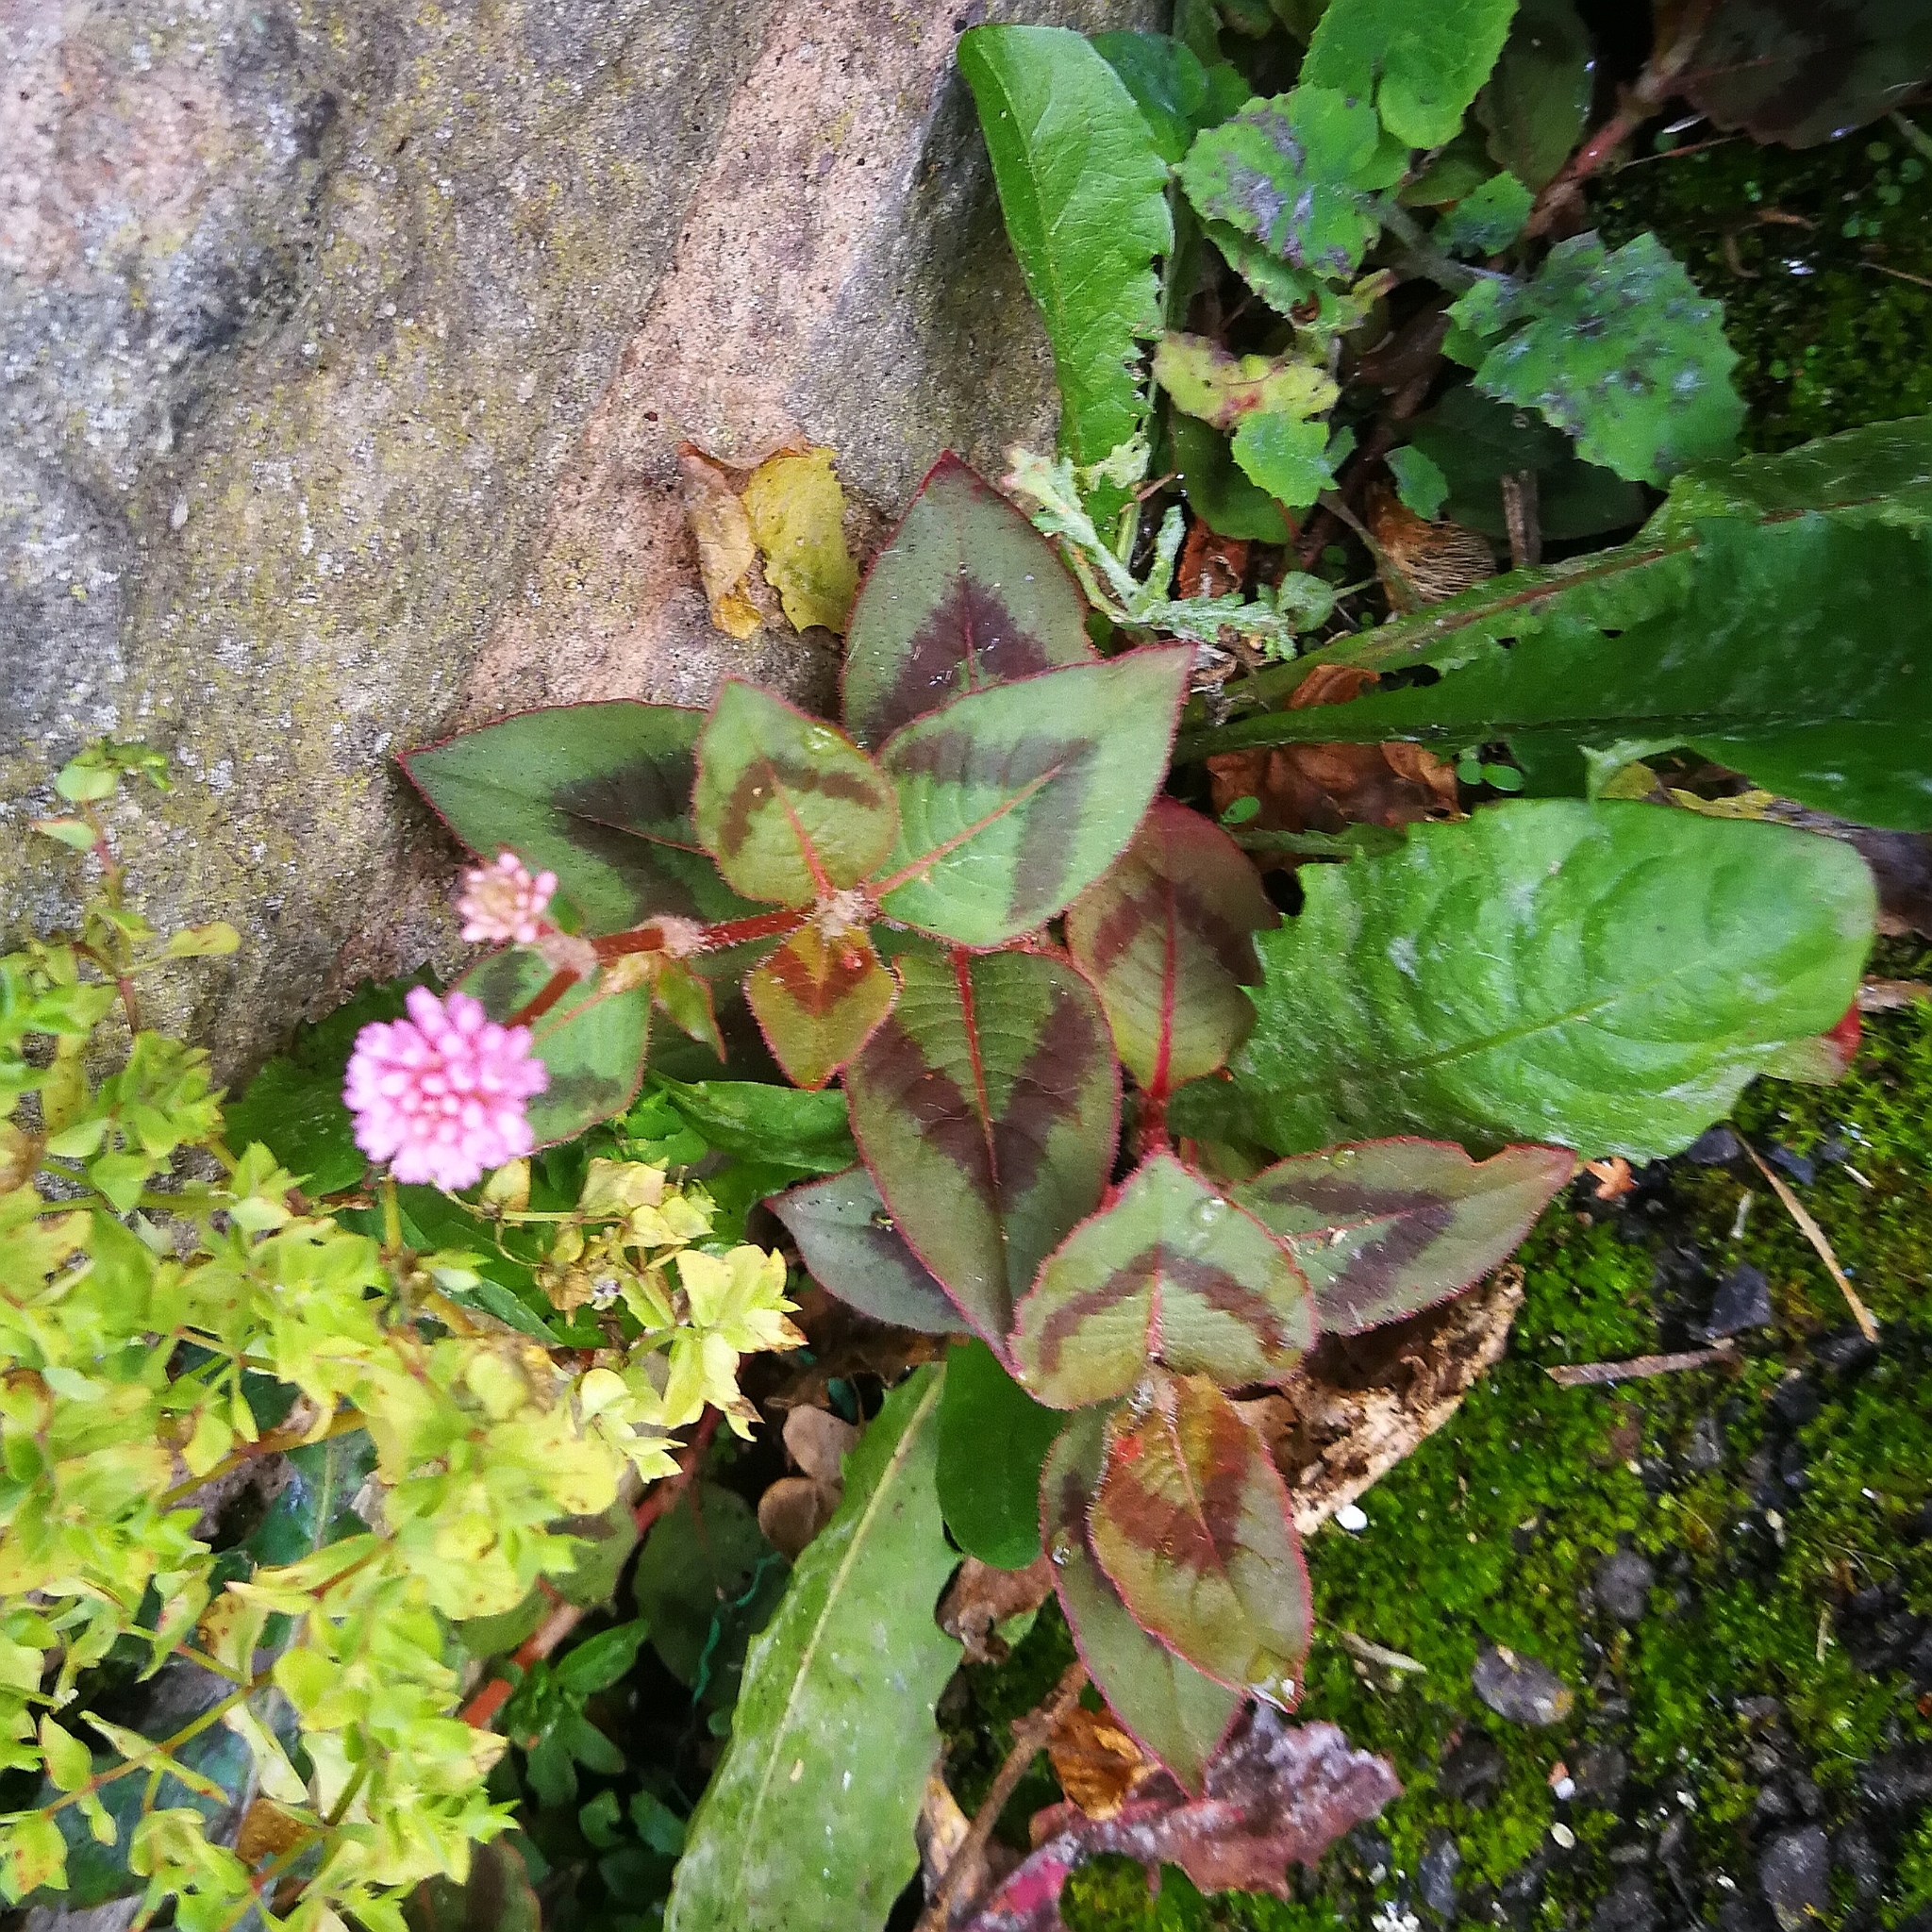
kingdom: Plantae
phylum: Tracheophyta
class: Magnoliopsida
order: Caryophyllales
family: Polygonaceae
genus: Persicaria
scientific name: Persicaria capitata
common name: Pinkhead smartweed
